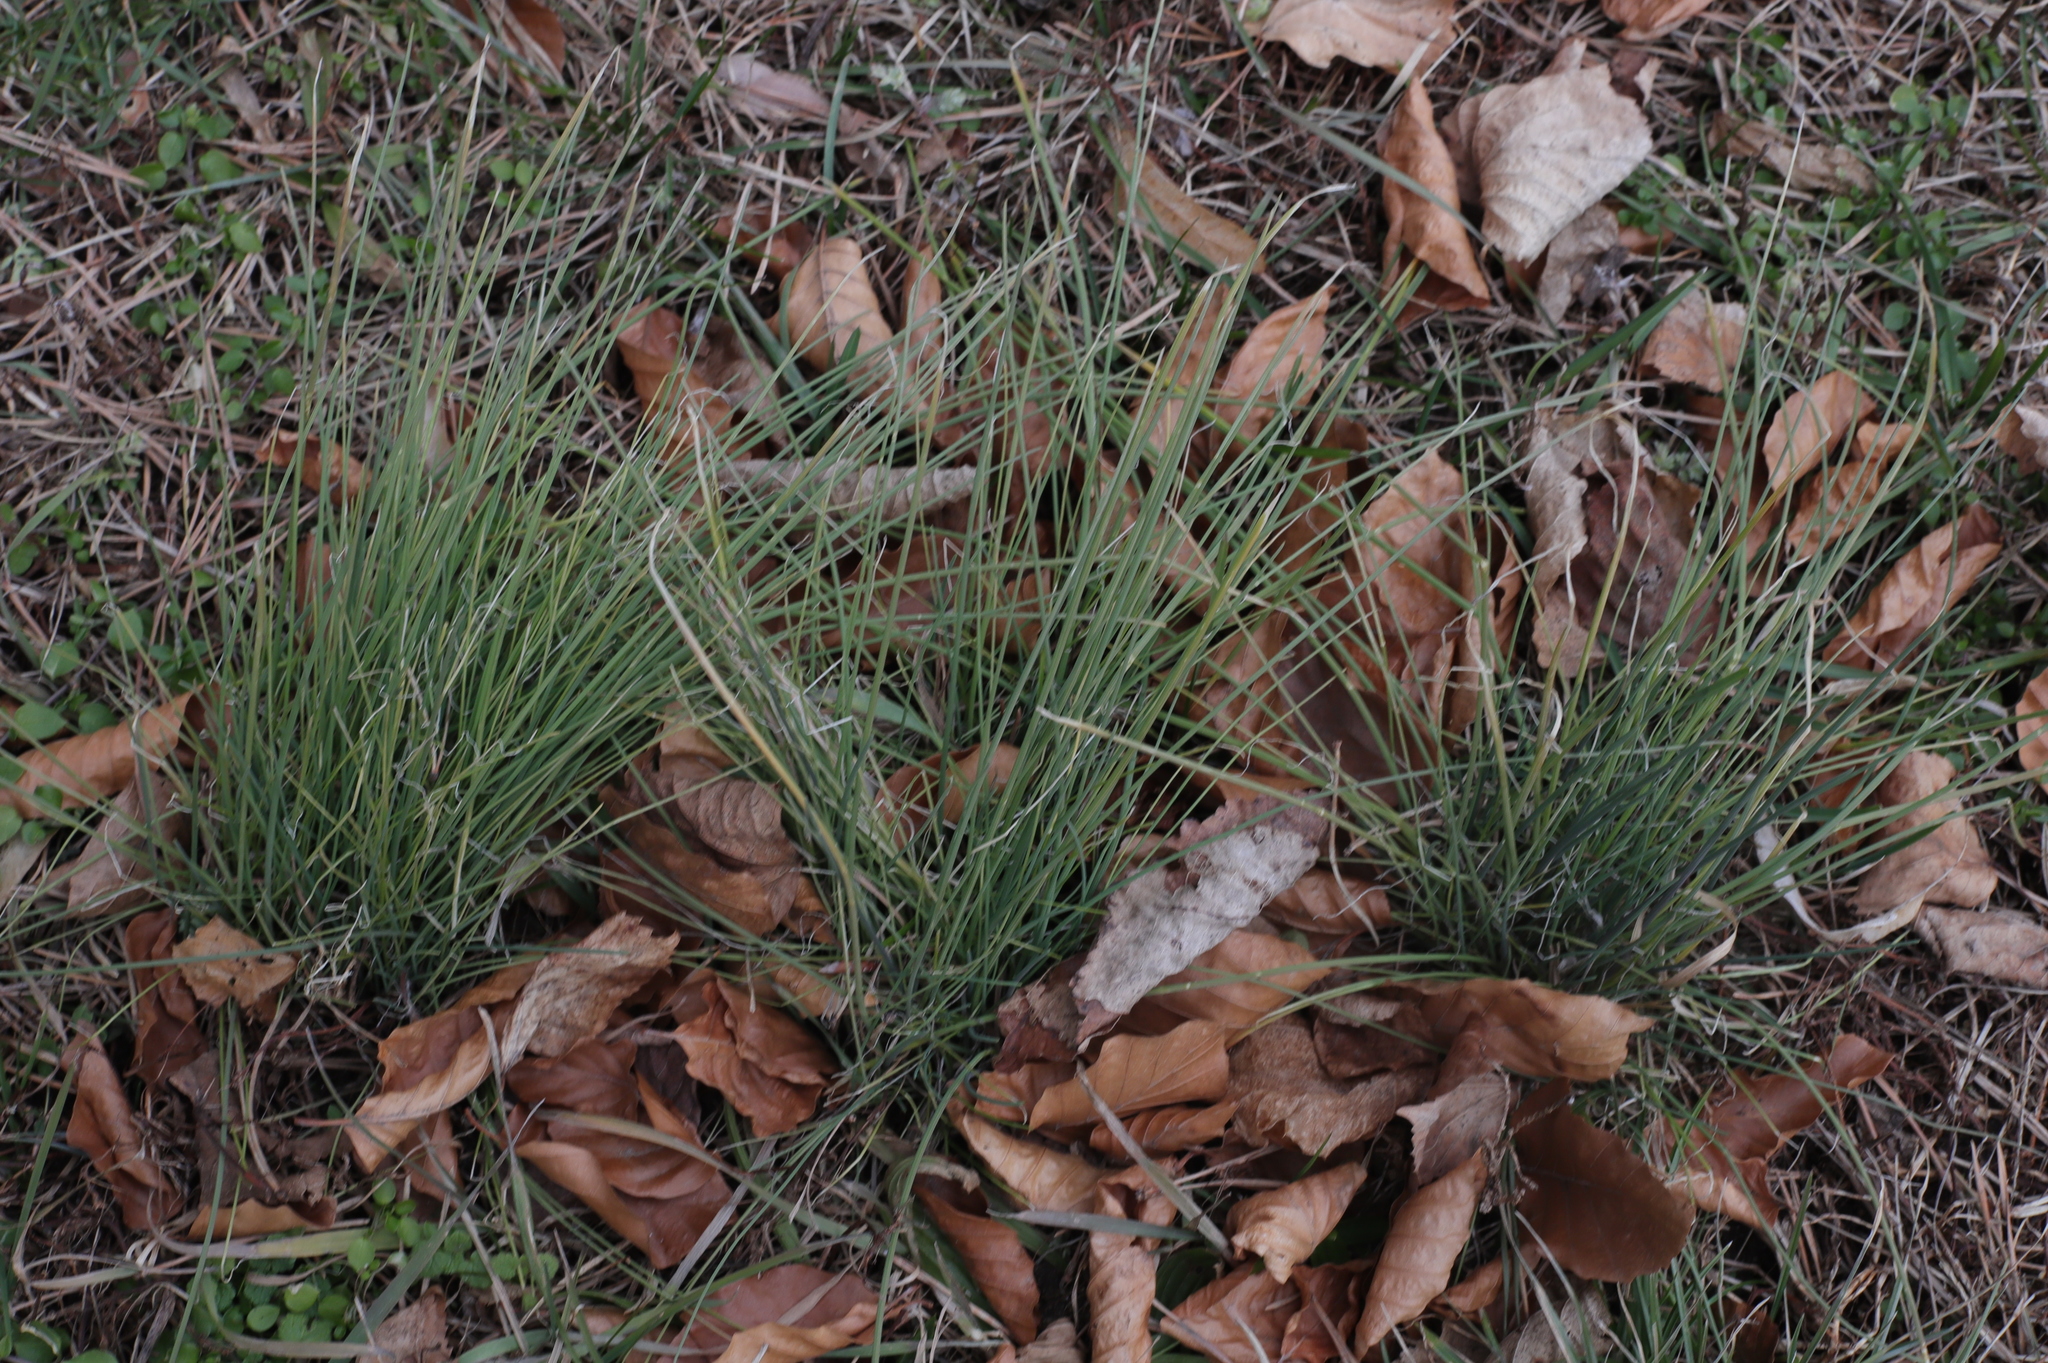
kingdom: Plantae
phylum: Tracheophyta
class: Liliopsida
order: Asparagales
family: Amaryllidaceae
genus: Allium
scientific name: Allium vineale
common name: Crow garlic
